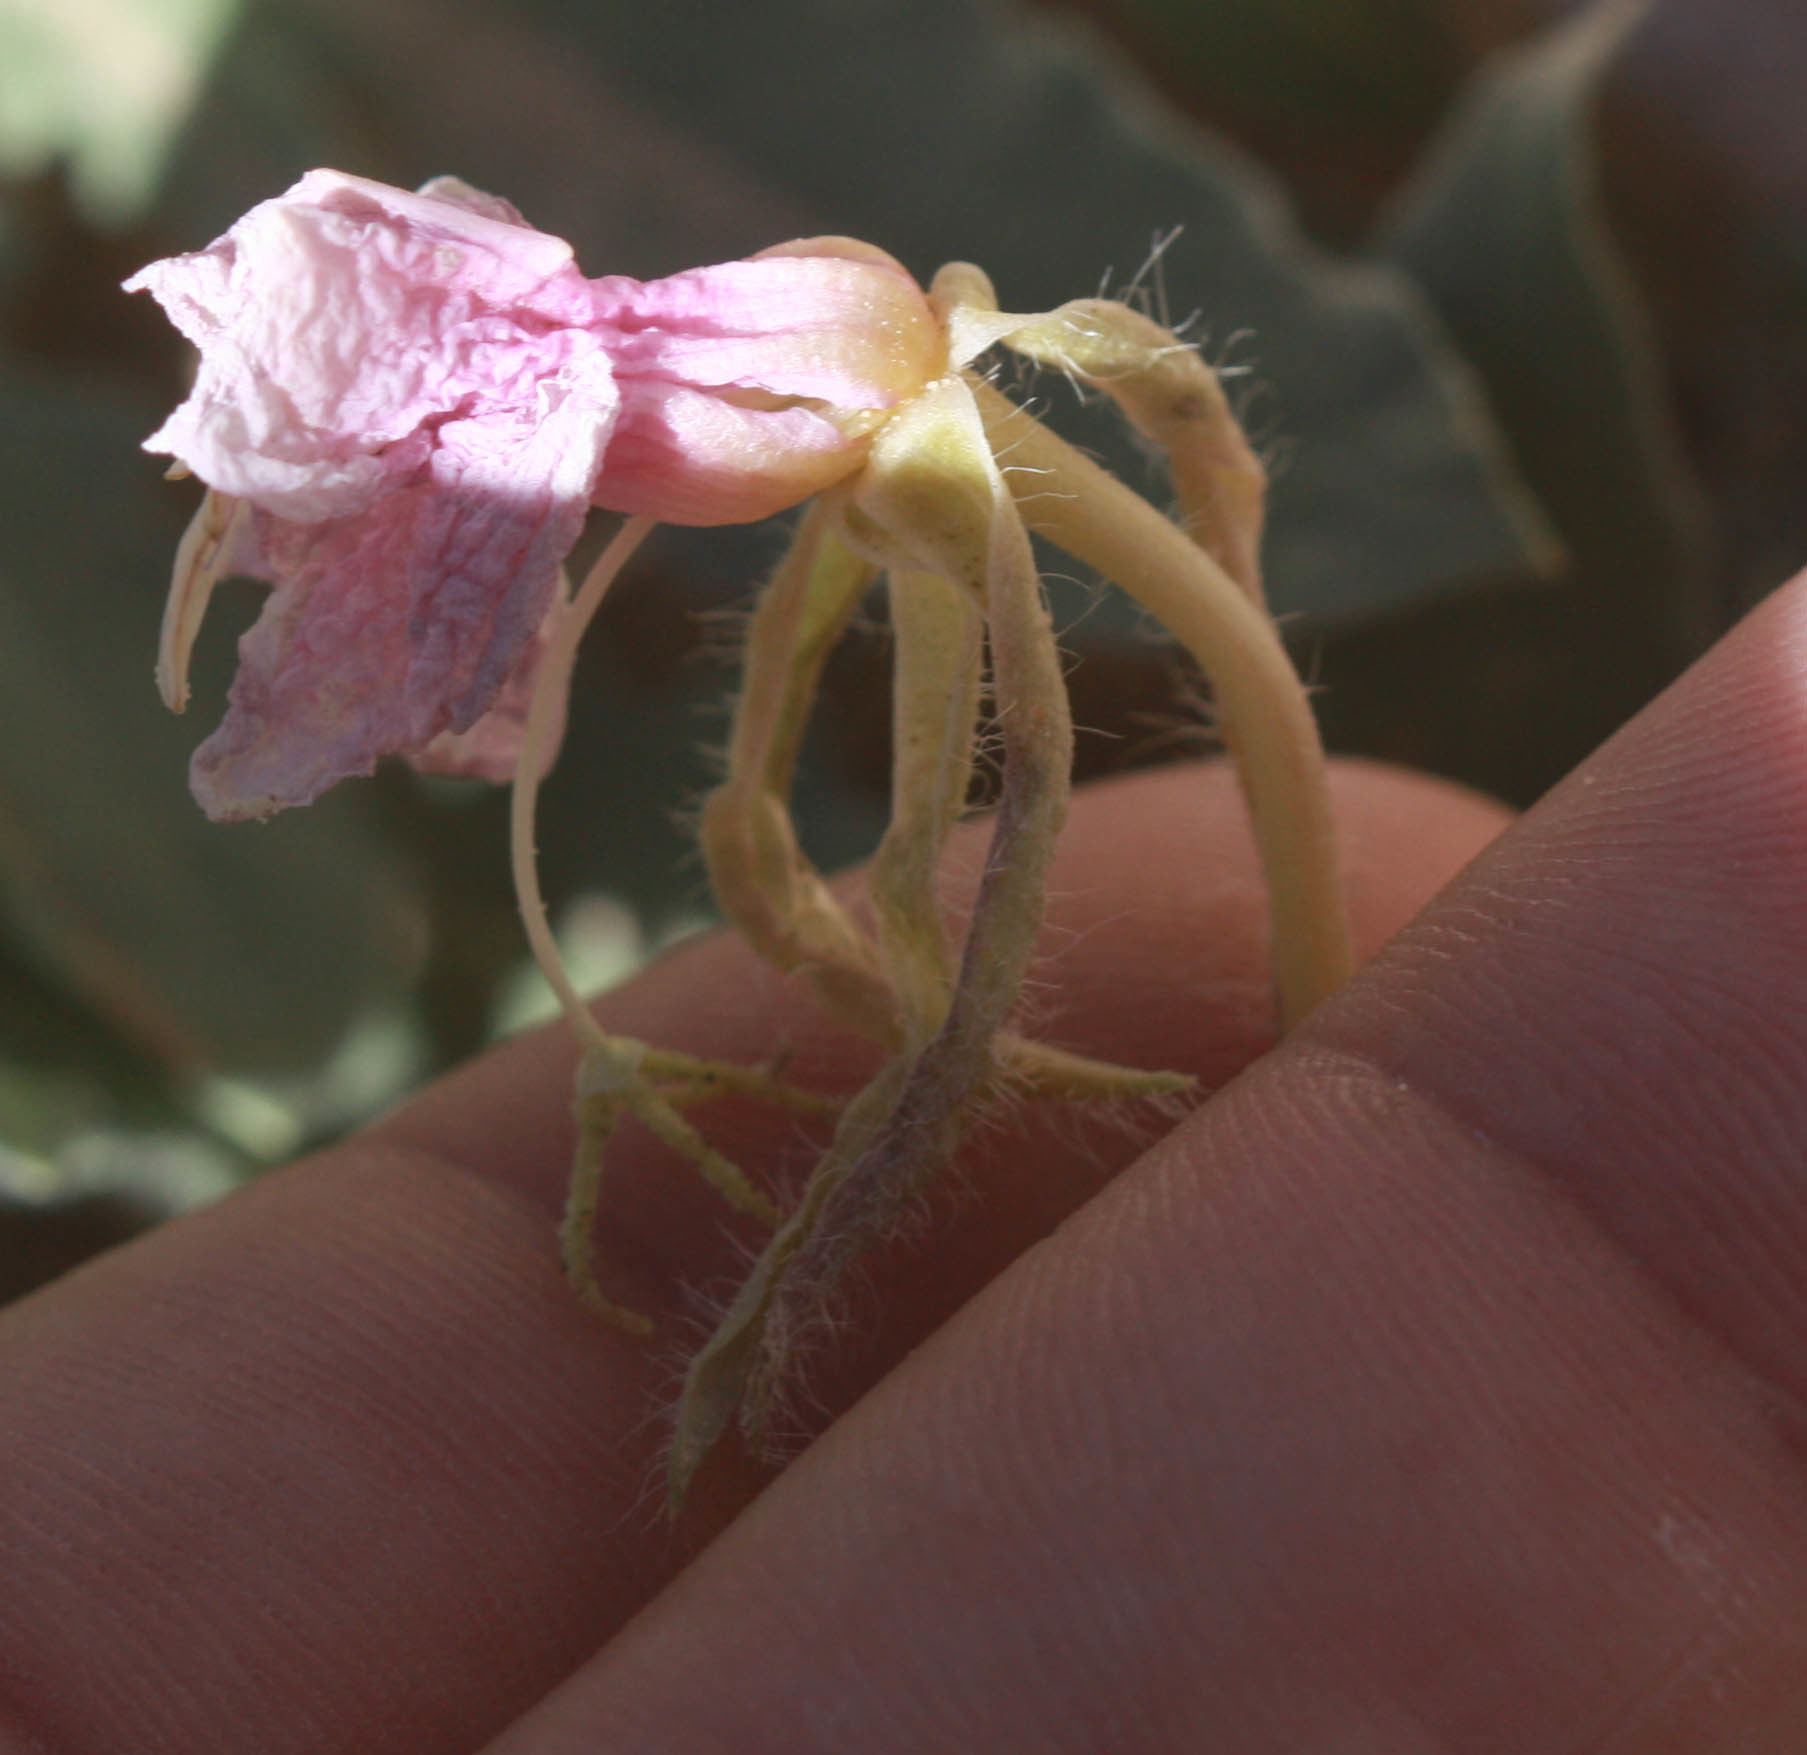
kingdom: Plantae
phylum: Tracheophyta
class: Magnoliopsida
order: Myrtales
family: Onagraceae
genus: Oenothera
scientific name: Oenothera avita
